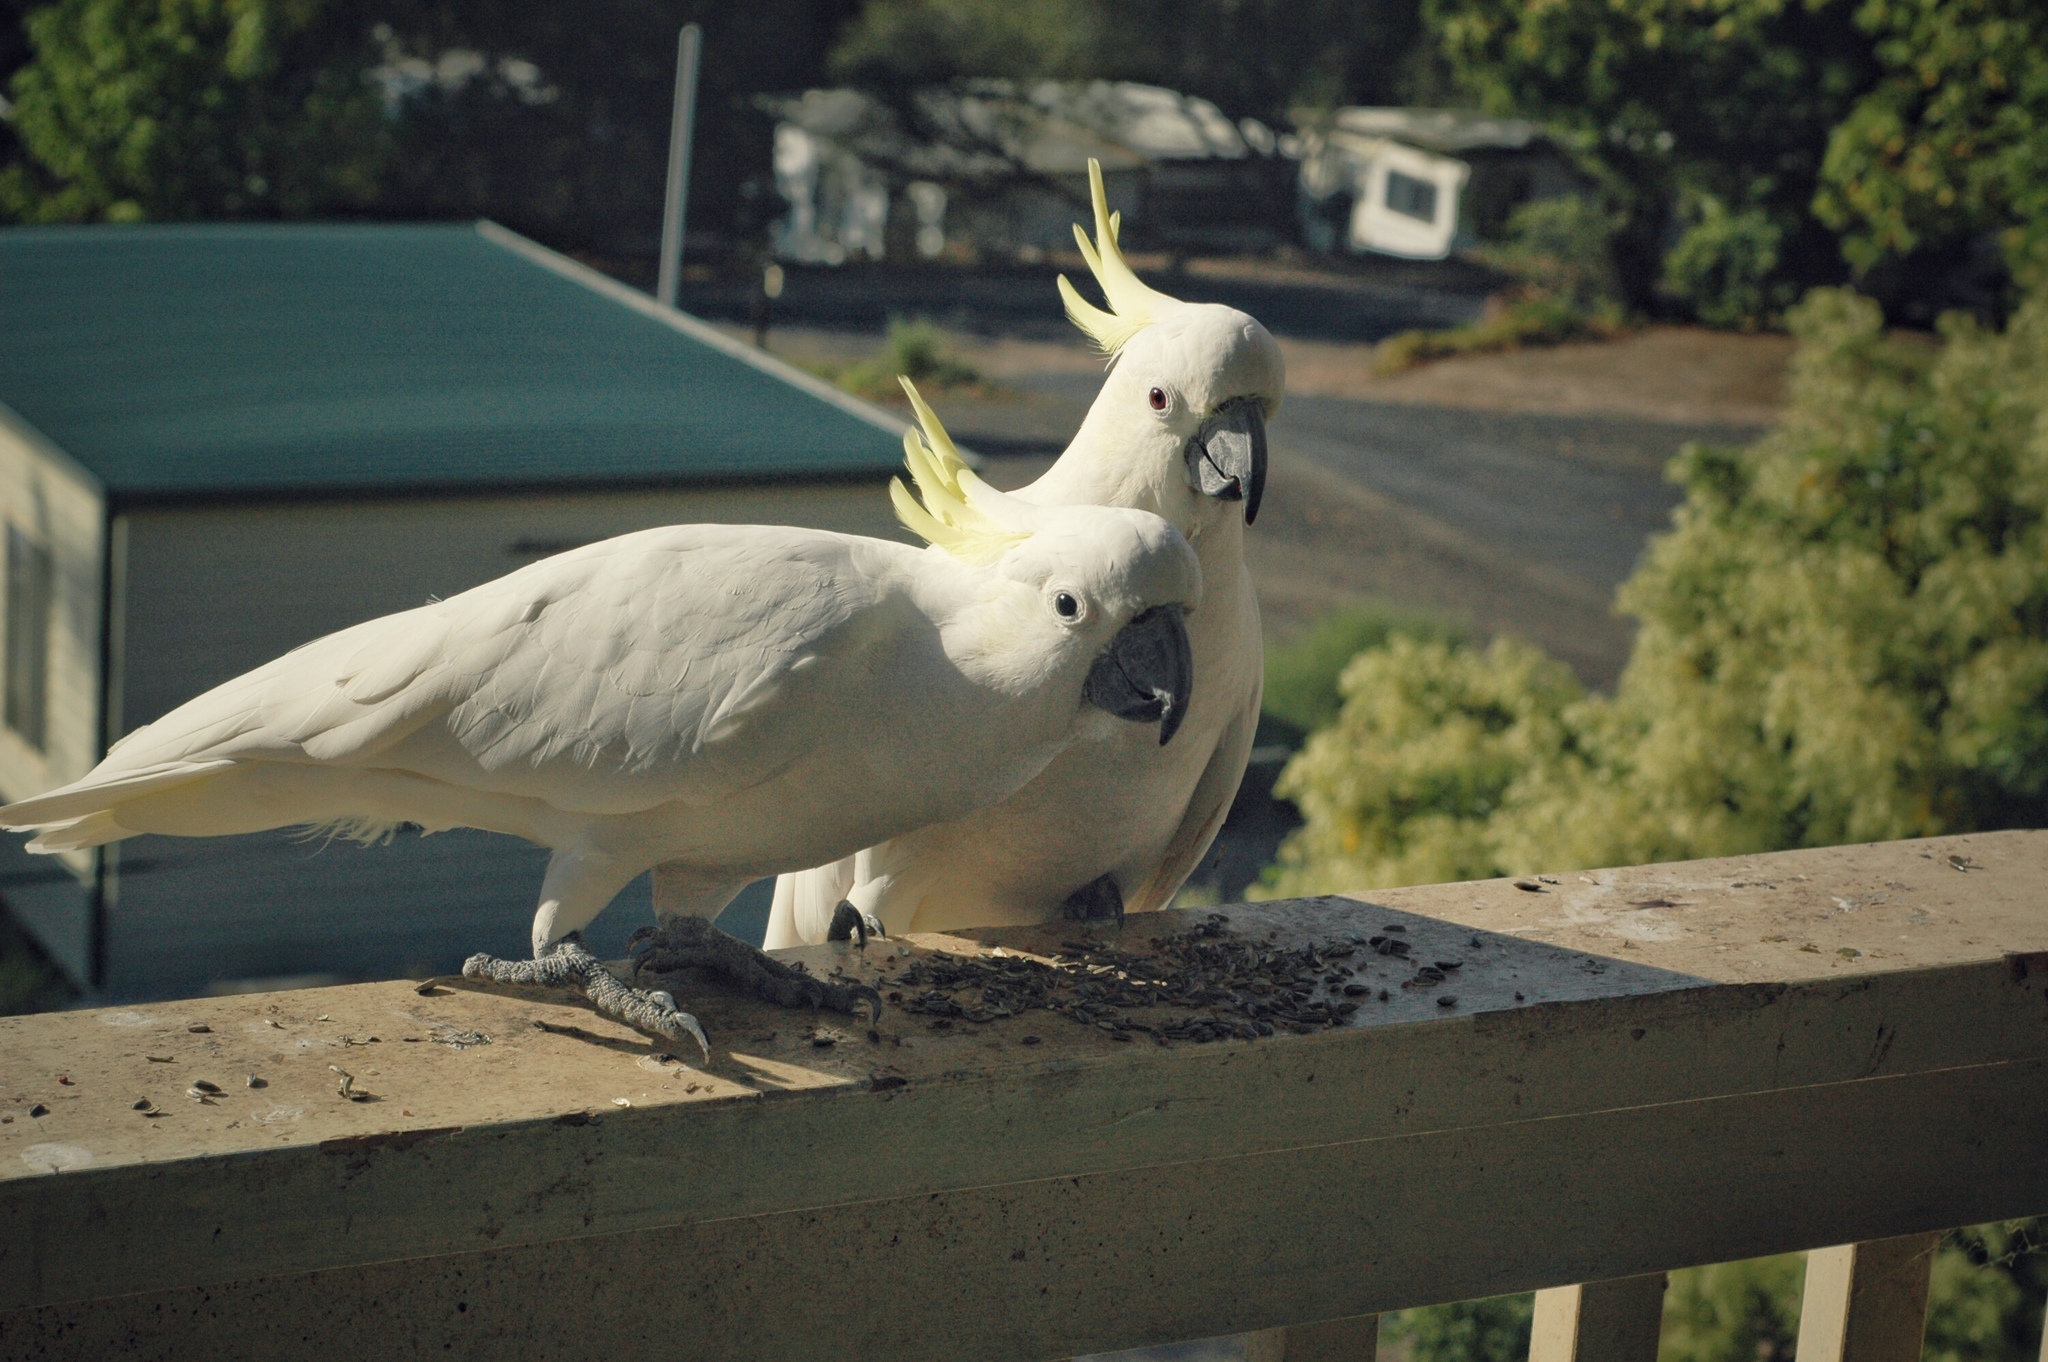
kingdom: Animalia
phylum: Chordata
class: Aves
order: Psittaciformes
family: Psittacidae
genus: Cacatua
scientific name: Cacatua galerita
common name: Sulphur-crested cockatoo
